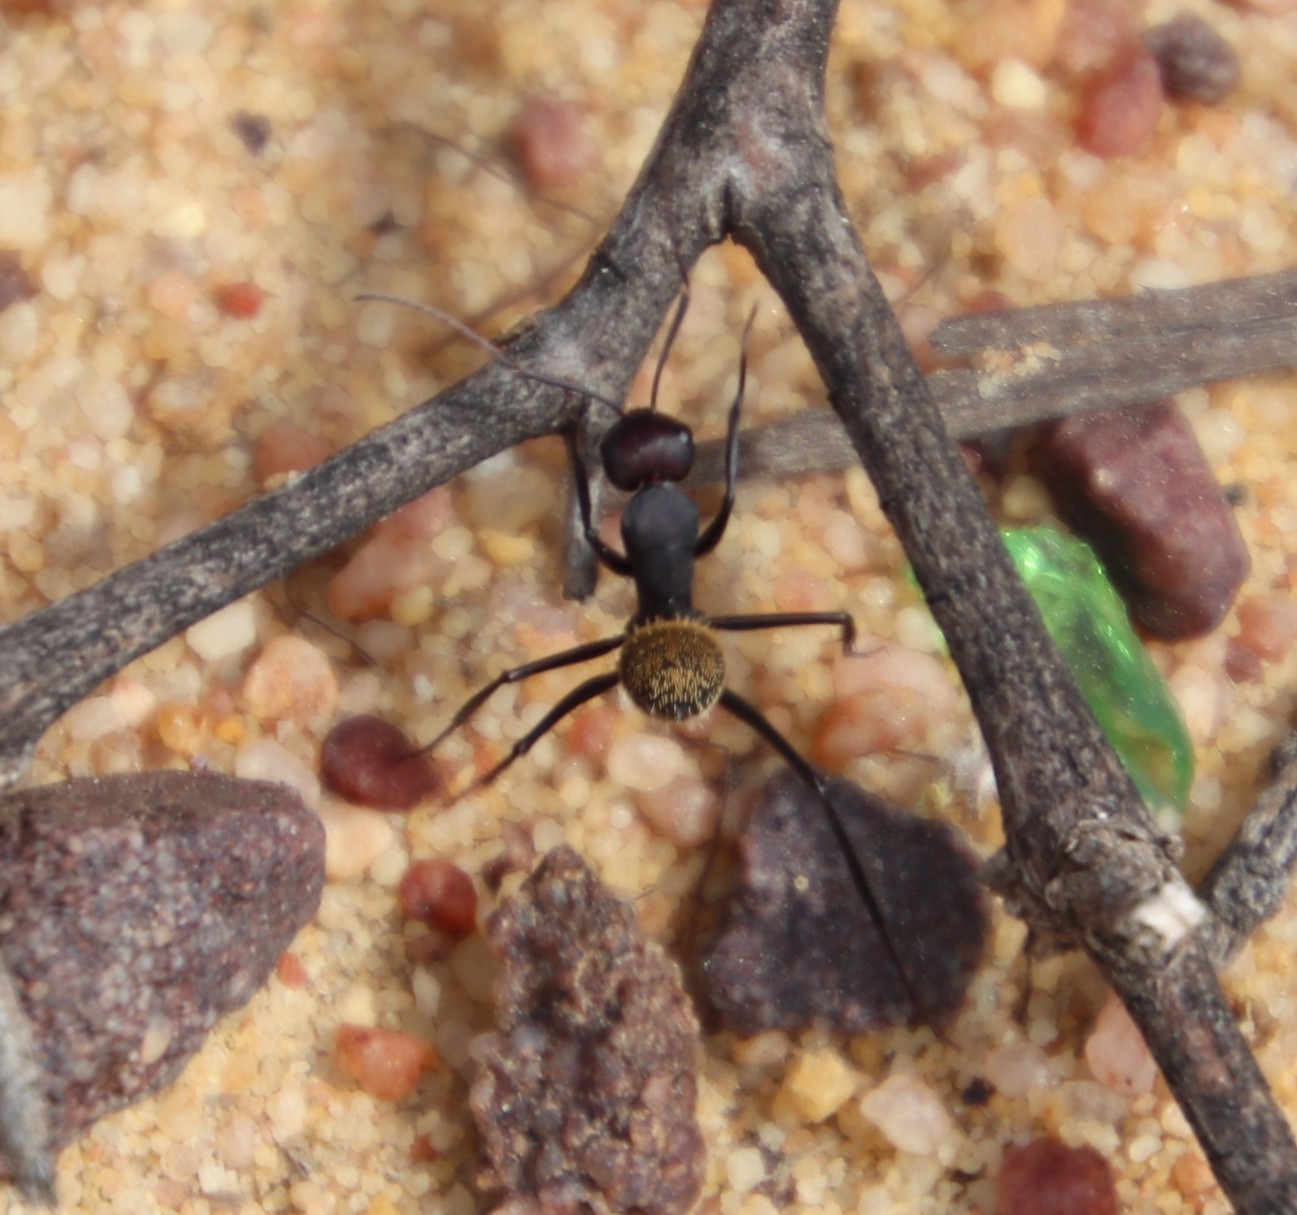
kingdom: Animalia
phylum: Arthropoda
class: Insecta
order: Hymenoptera
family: Formicidae
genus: Camponotus
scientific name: Camponotus fulvopilosus
